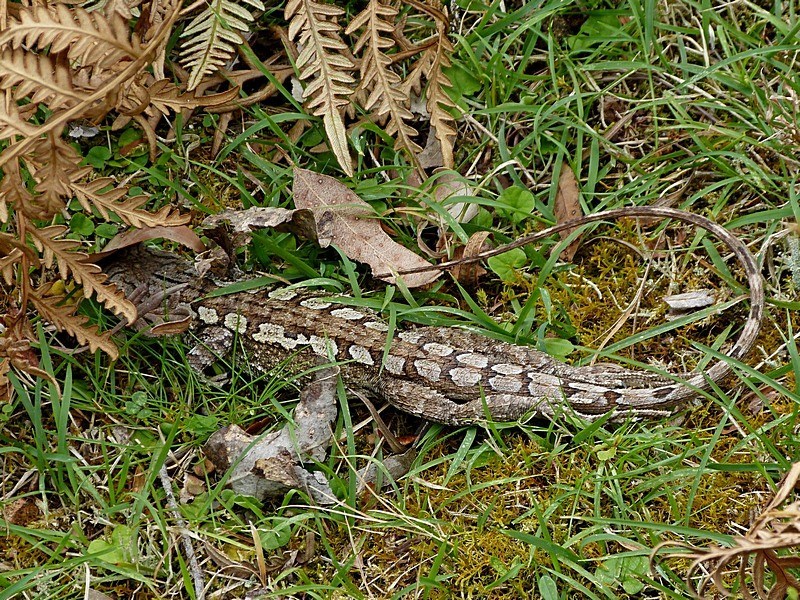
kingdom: Animalia
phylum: Chordata
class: Squamata
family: Agamidae
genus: Amphibolurus
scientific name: Amphibolurus muricatus
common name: Jacky lizard
